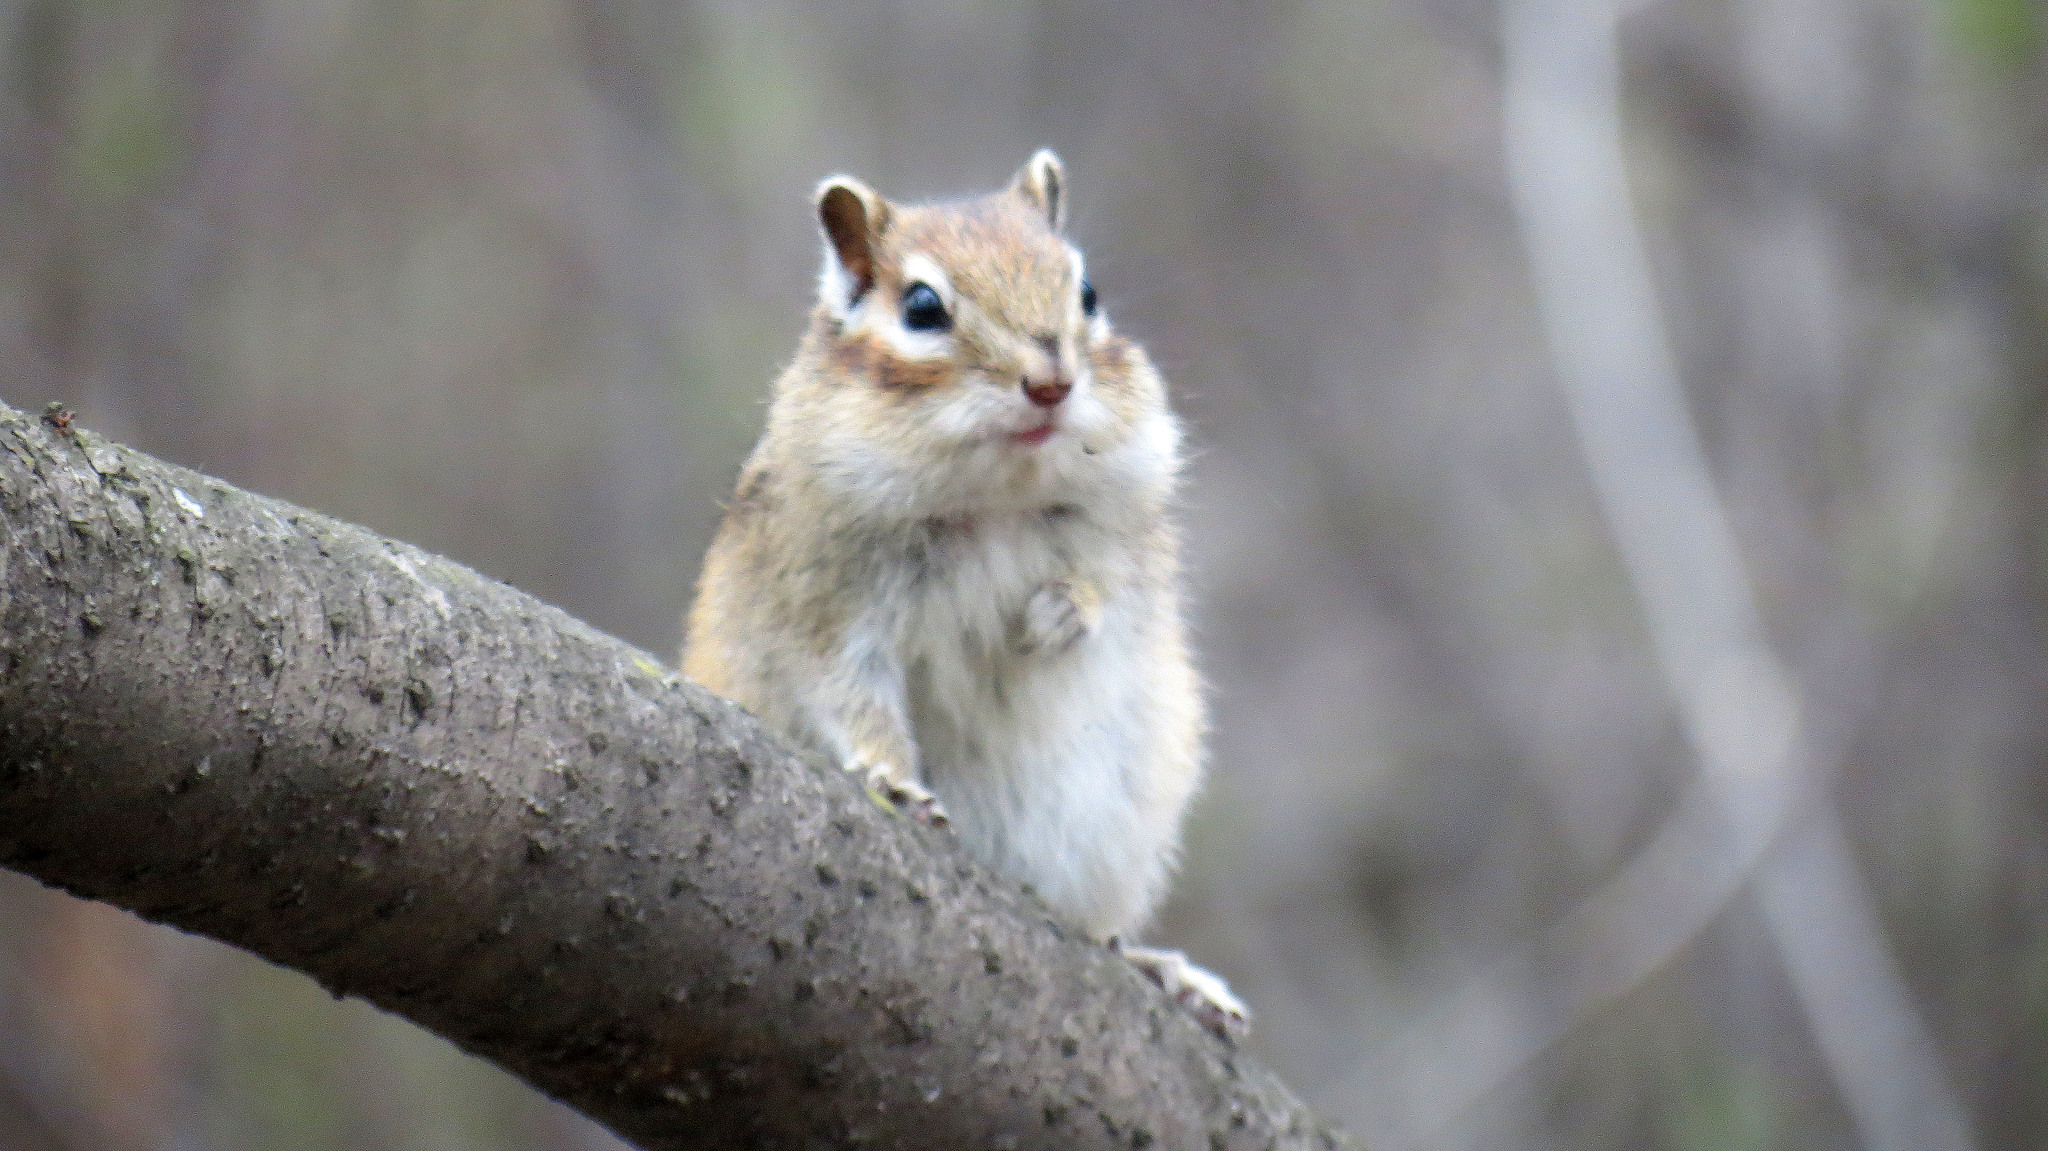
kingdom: Animalia
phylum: Chordata
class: Mammalia
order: Rodentia
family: Sciuridae
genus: Tamias
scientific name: Tamias sibiricus
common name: Siberian chipmunk
